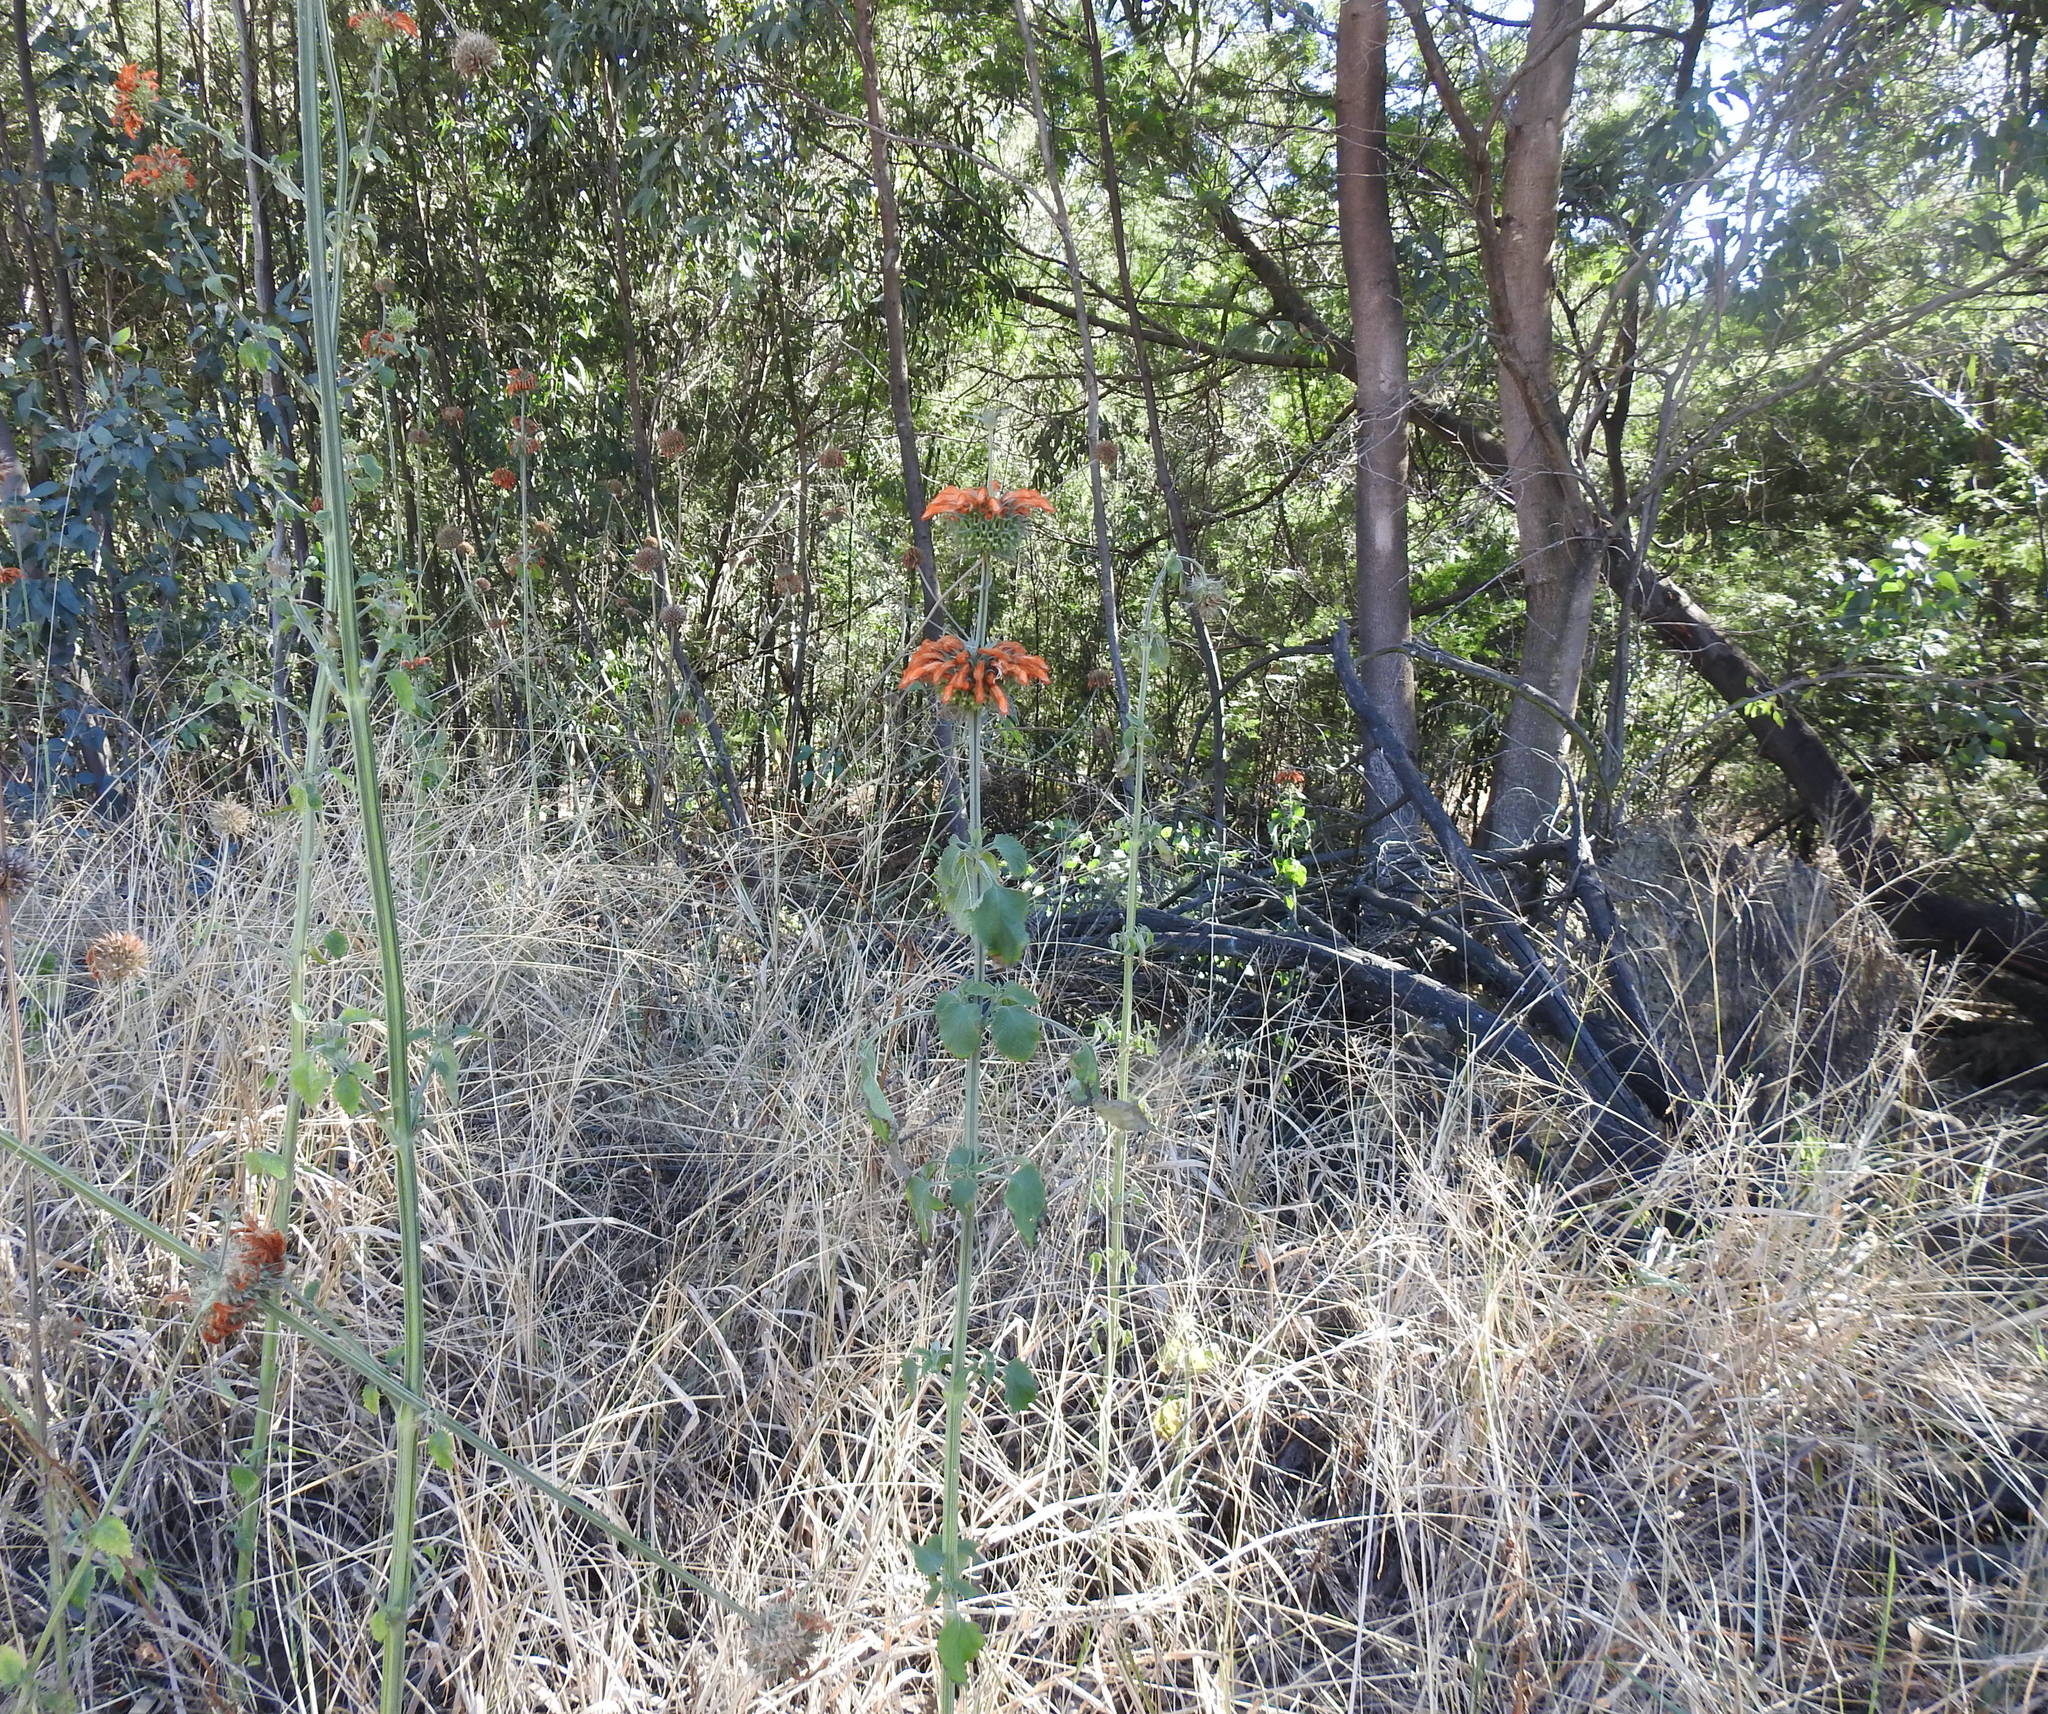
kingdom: Plantae
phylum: Tracheophyta
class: Magnoliopsida
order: Lamiales
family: Lamiaceae
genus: Leonotis
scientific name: Leonotis nepetifolia
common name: Christmas candlestick
